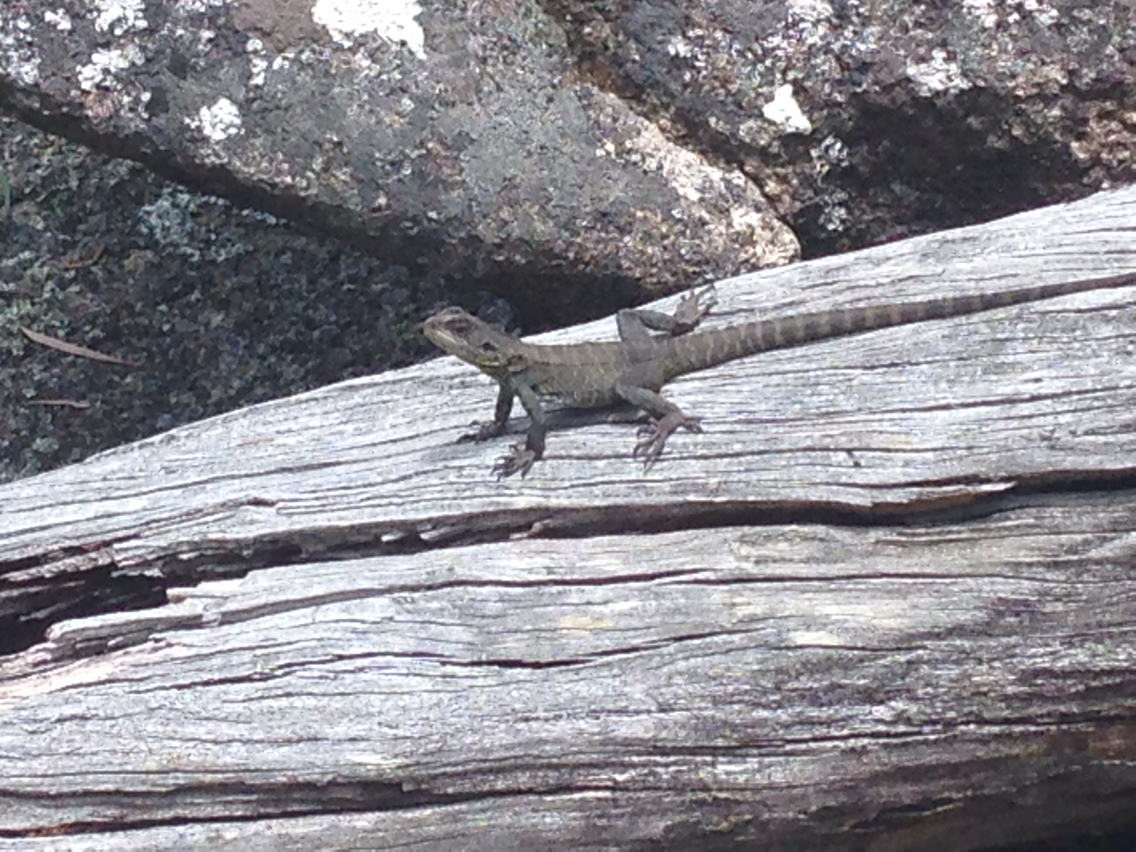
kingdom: Animalia
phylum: Chordata
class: Squamata
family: Agamidae
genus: Intellagama
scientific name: Intellagama lesueurii
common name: Eastern water dragon
